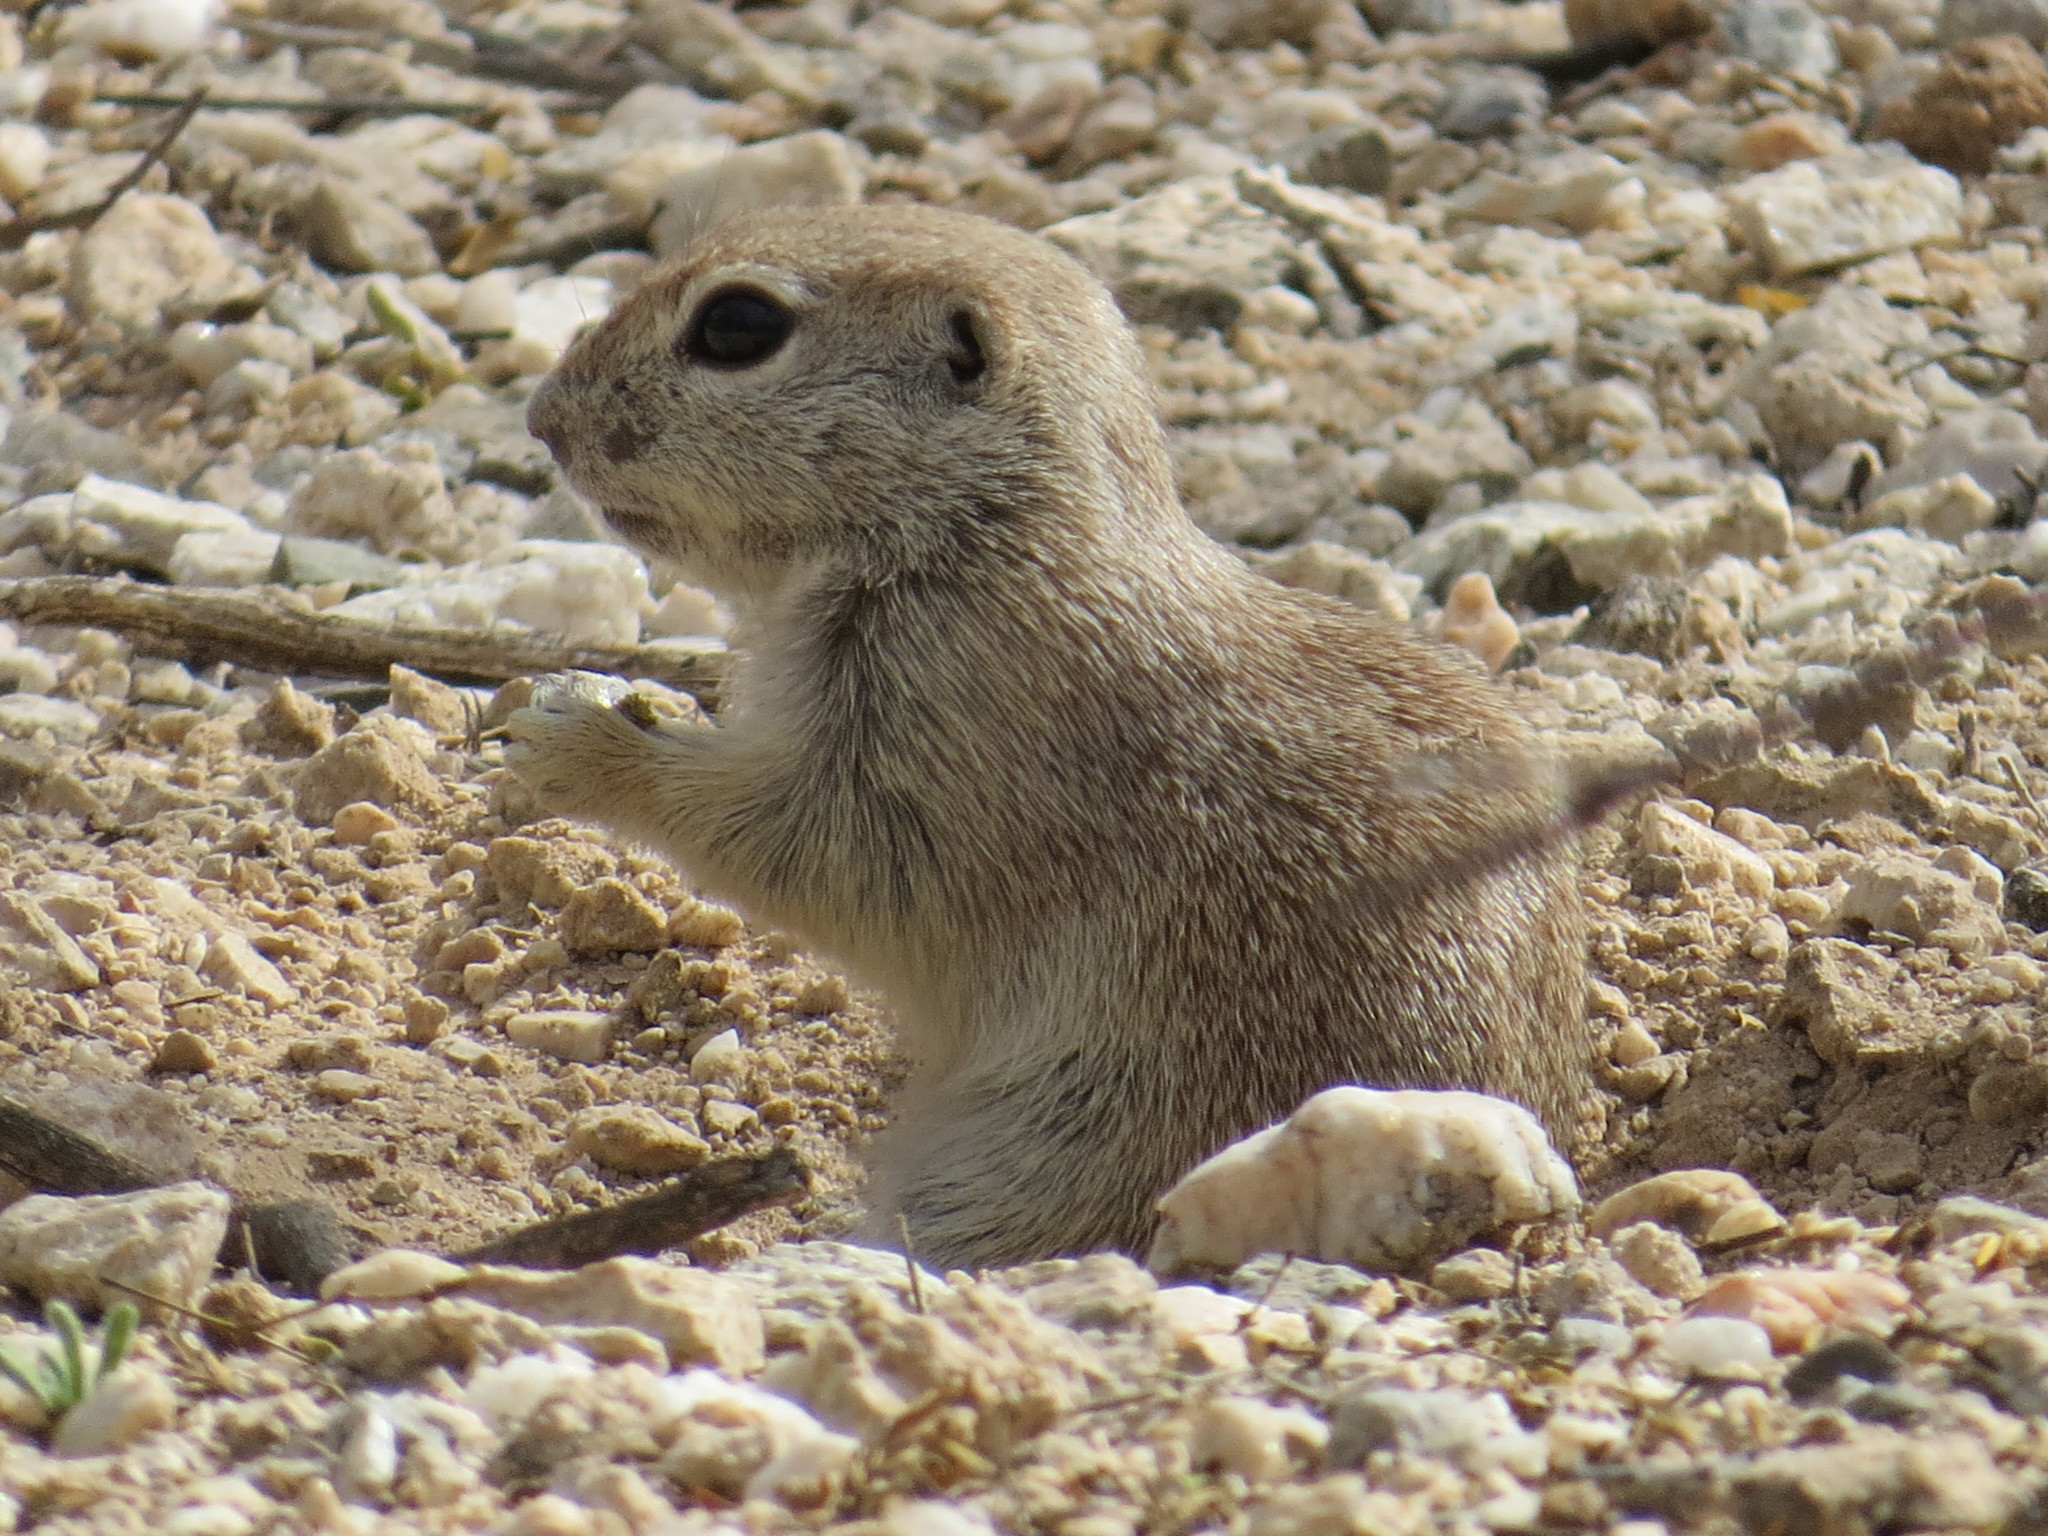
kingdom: Animalia
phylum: Chordata
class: Mammalia
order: Rodentia
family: Sciuridae
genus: Xerospermophilus
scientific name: Xerospermophilus tereticaudus
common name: Round-tailed ground squirrel
